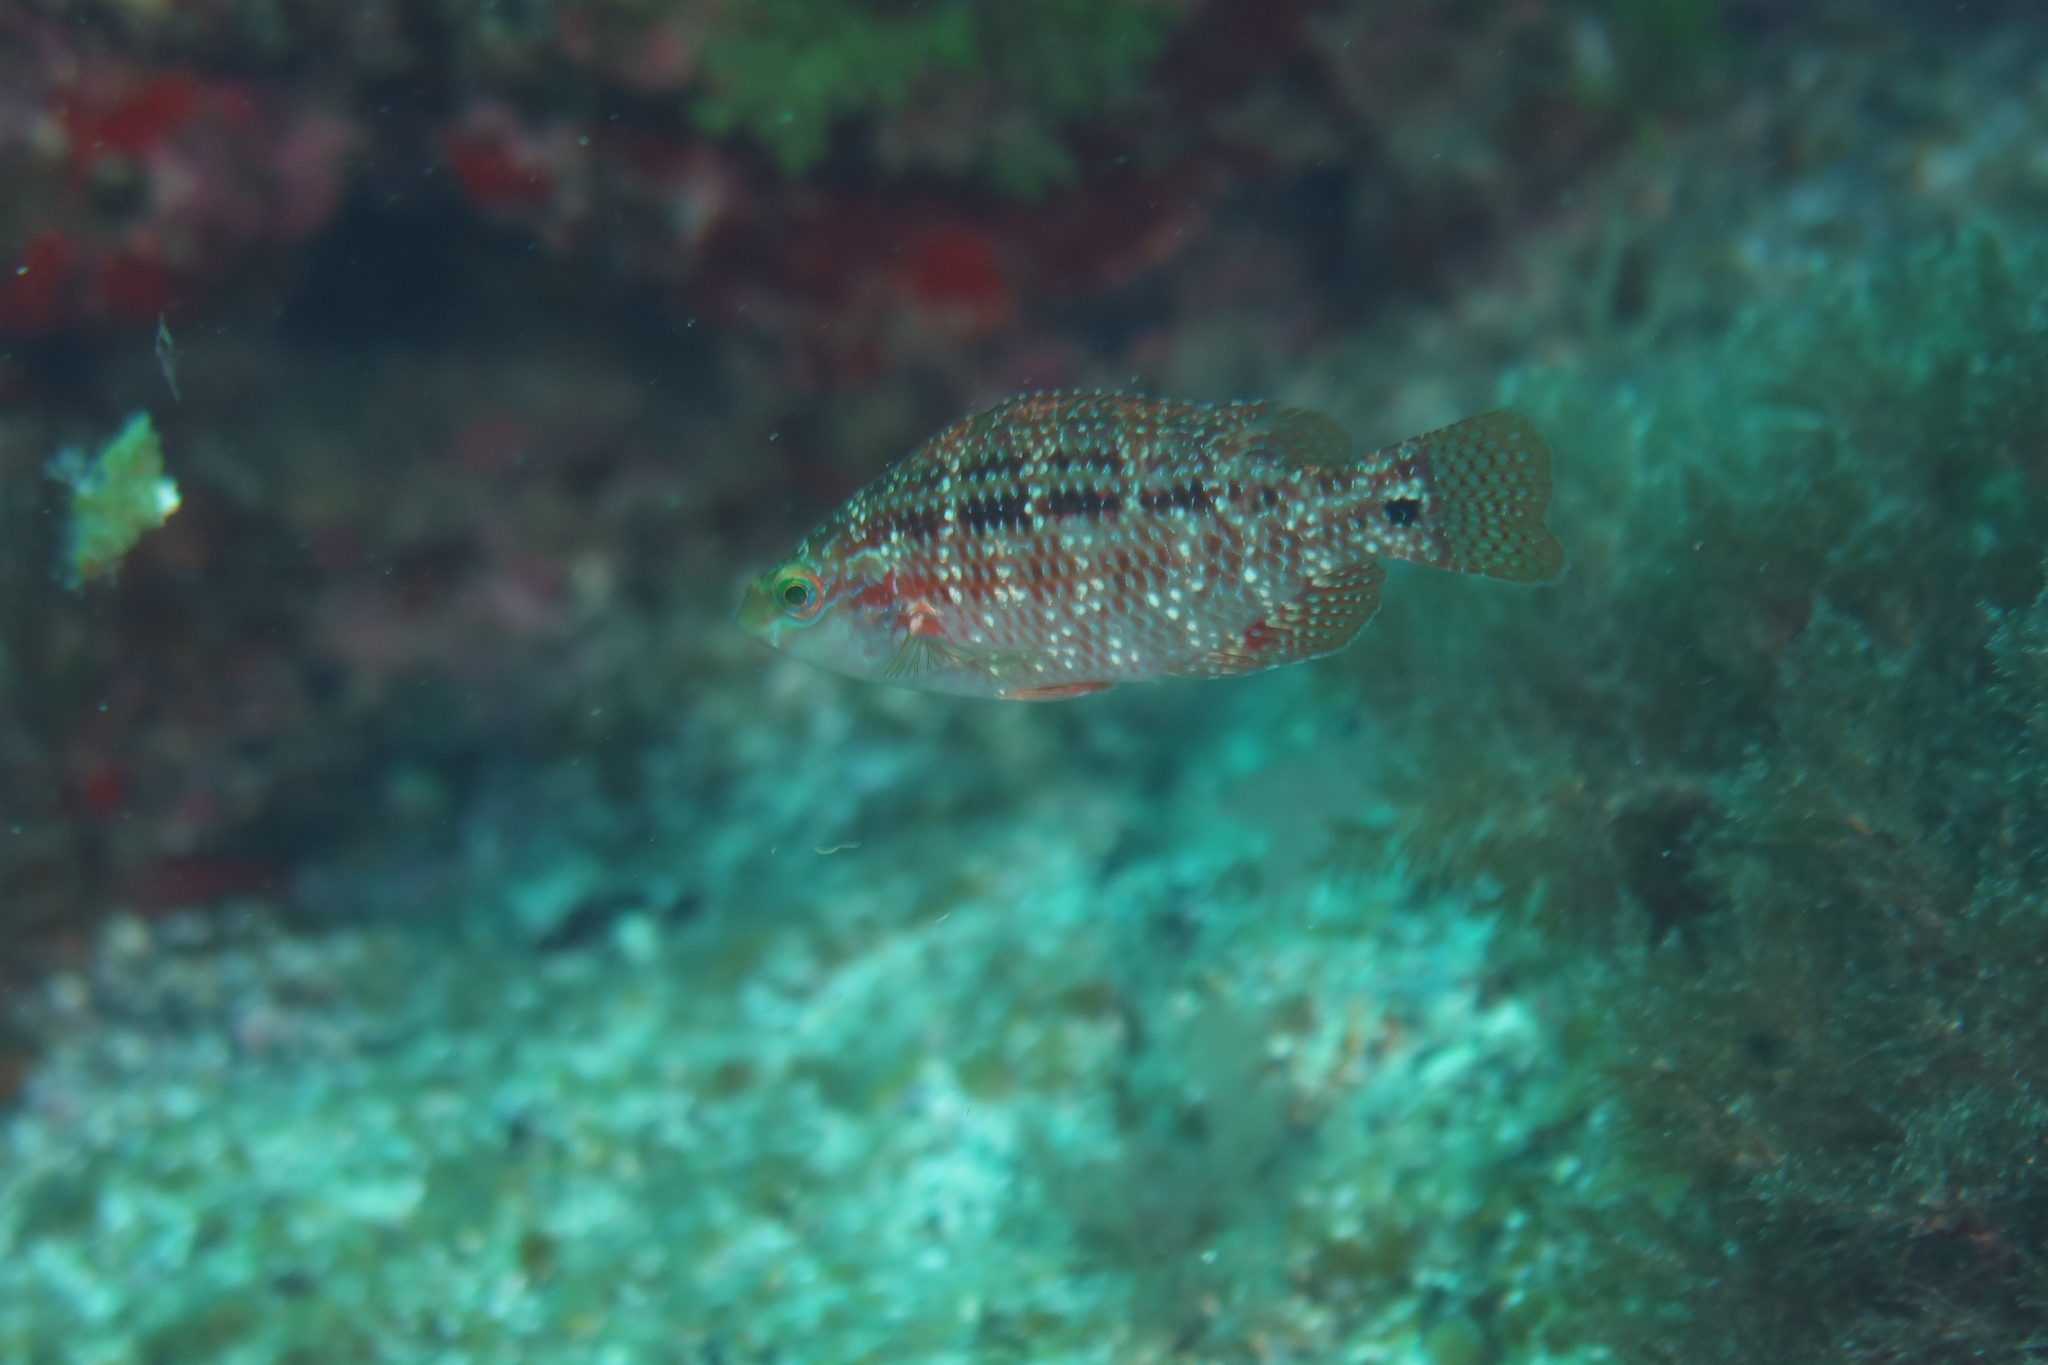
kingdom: Animalia
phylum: Chordata
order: Perciformes
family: Labridae
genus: Symphodus
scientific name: Symphodus trutta
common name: Emerald wrasse
